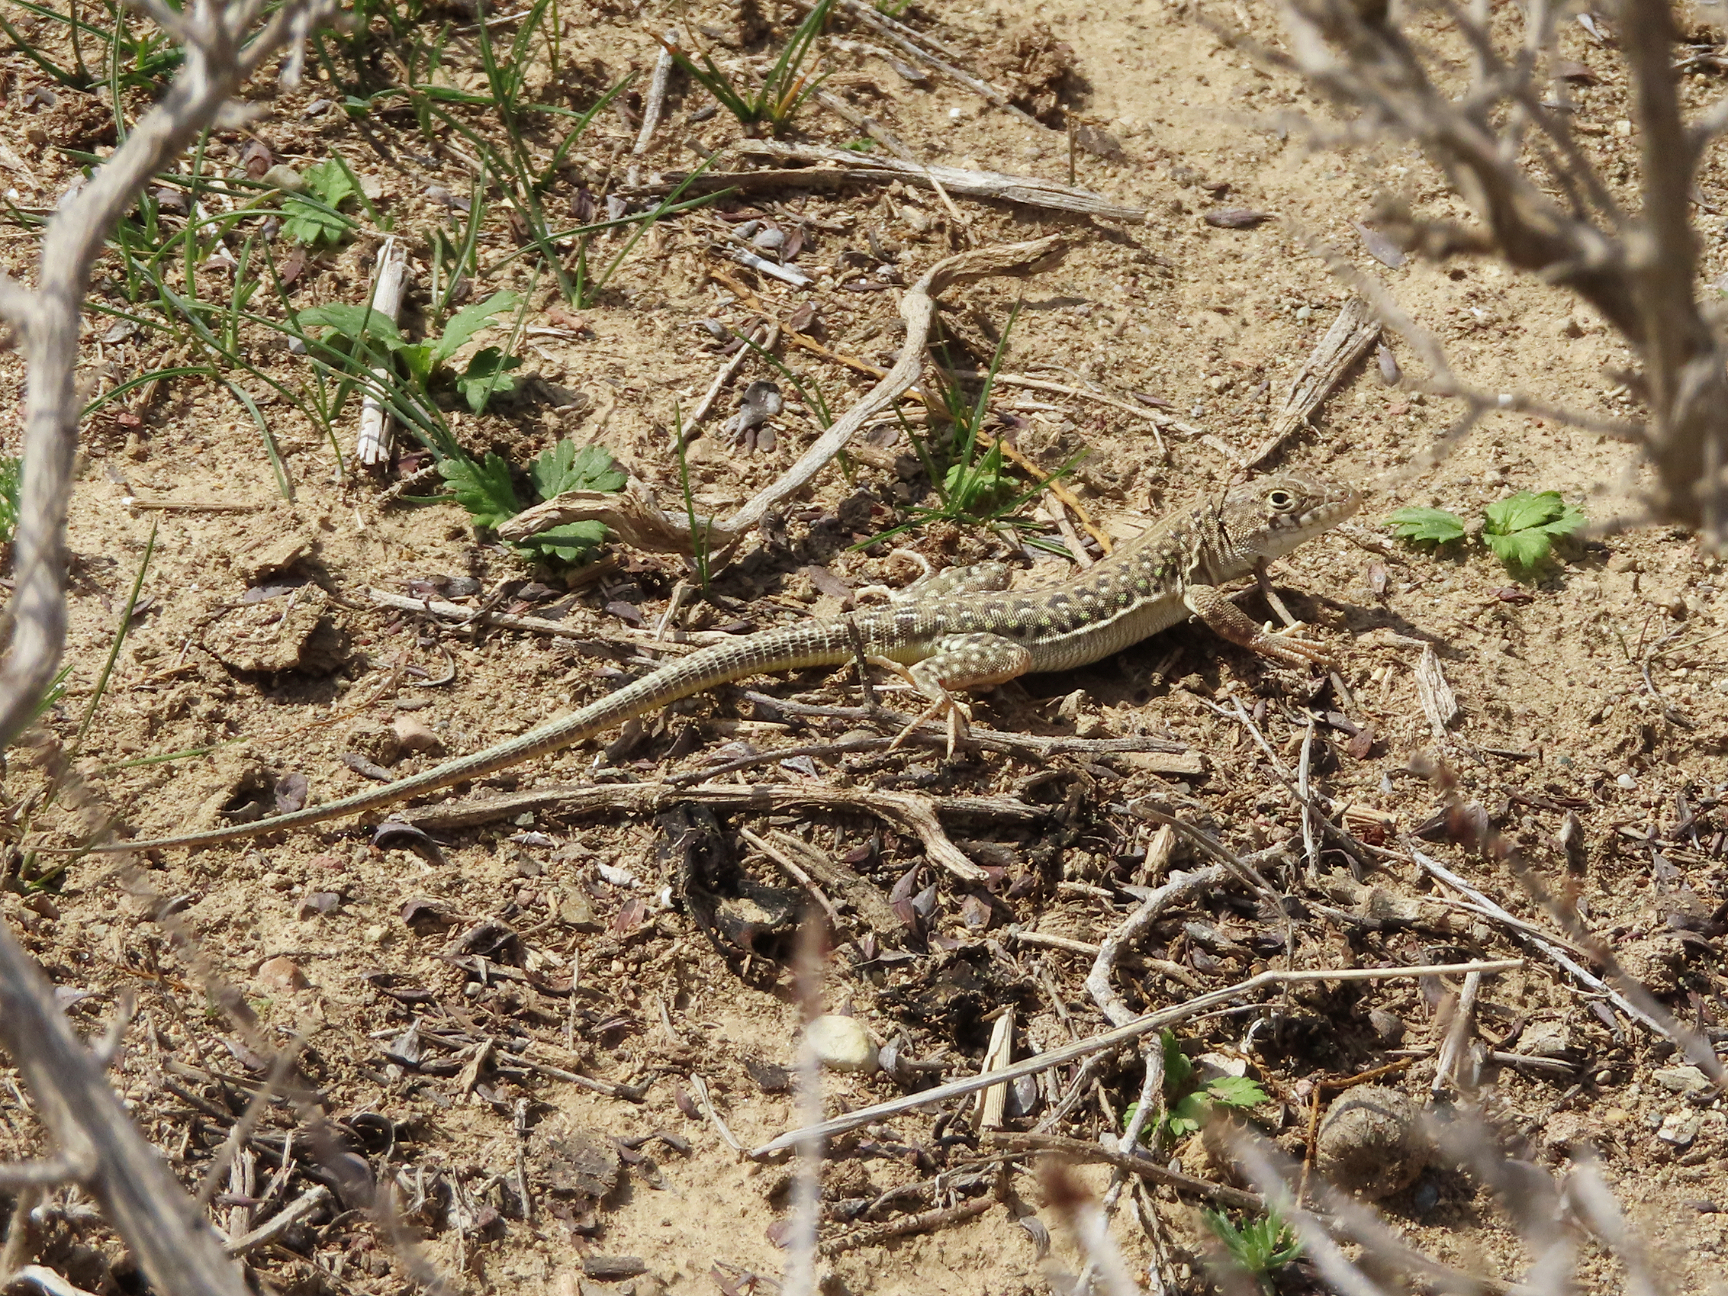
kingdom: Animalia
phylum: Chordata
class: Squamata
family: Lacertidae
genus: Eremias
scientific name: Eremias strauchi
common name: Strauch's racerunner
